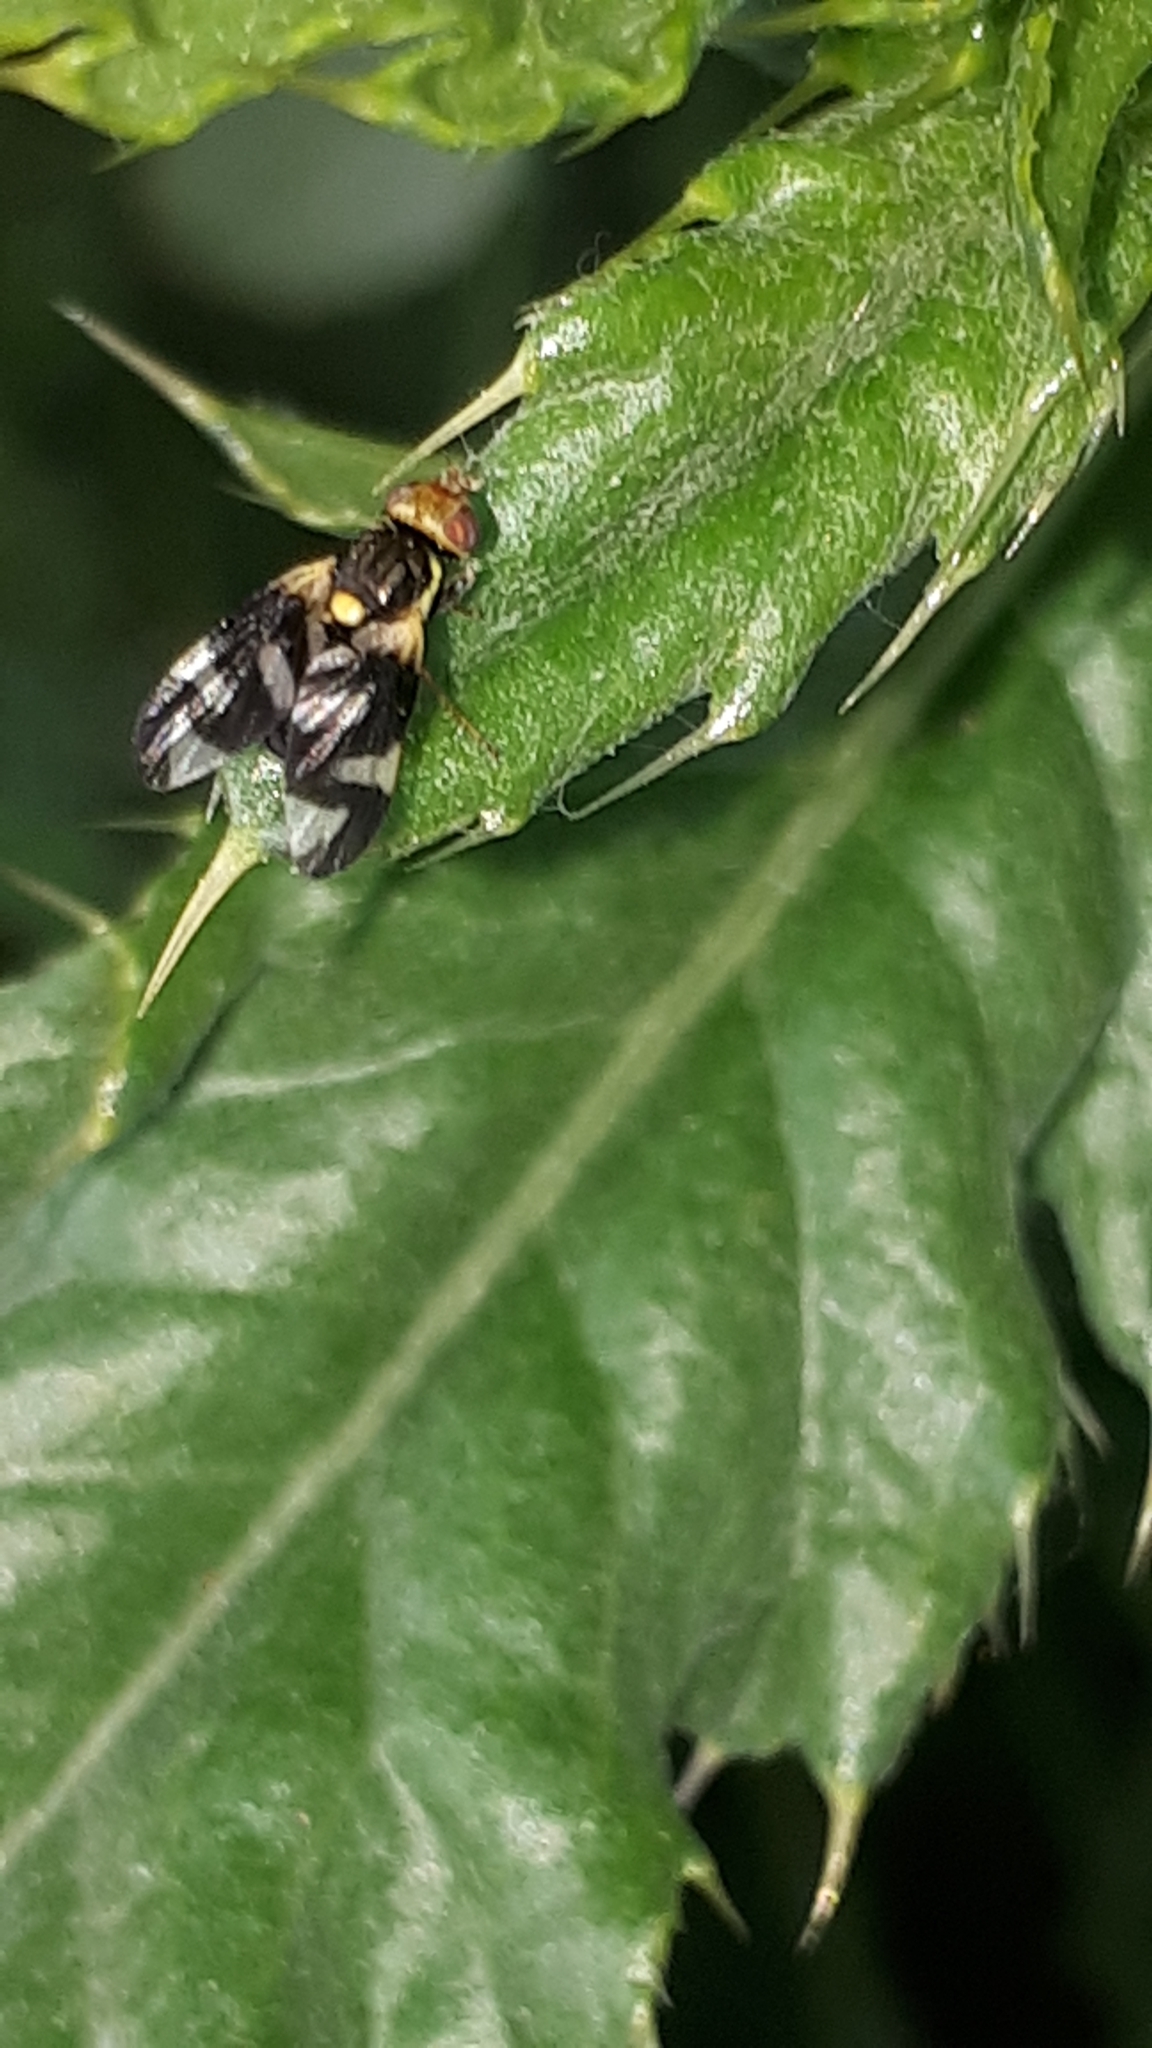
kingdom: Animalia
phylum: Arthropoda
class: Insecta
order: Diptera
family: Tephritidae
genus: Urophora
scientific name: Urophora cardui
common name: Fruit fly
